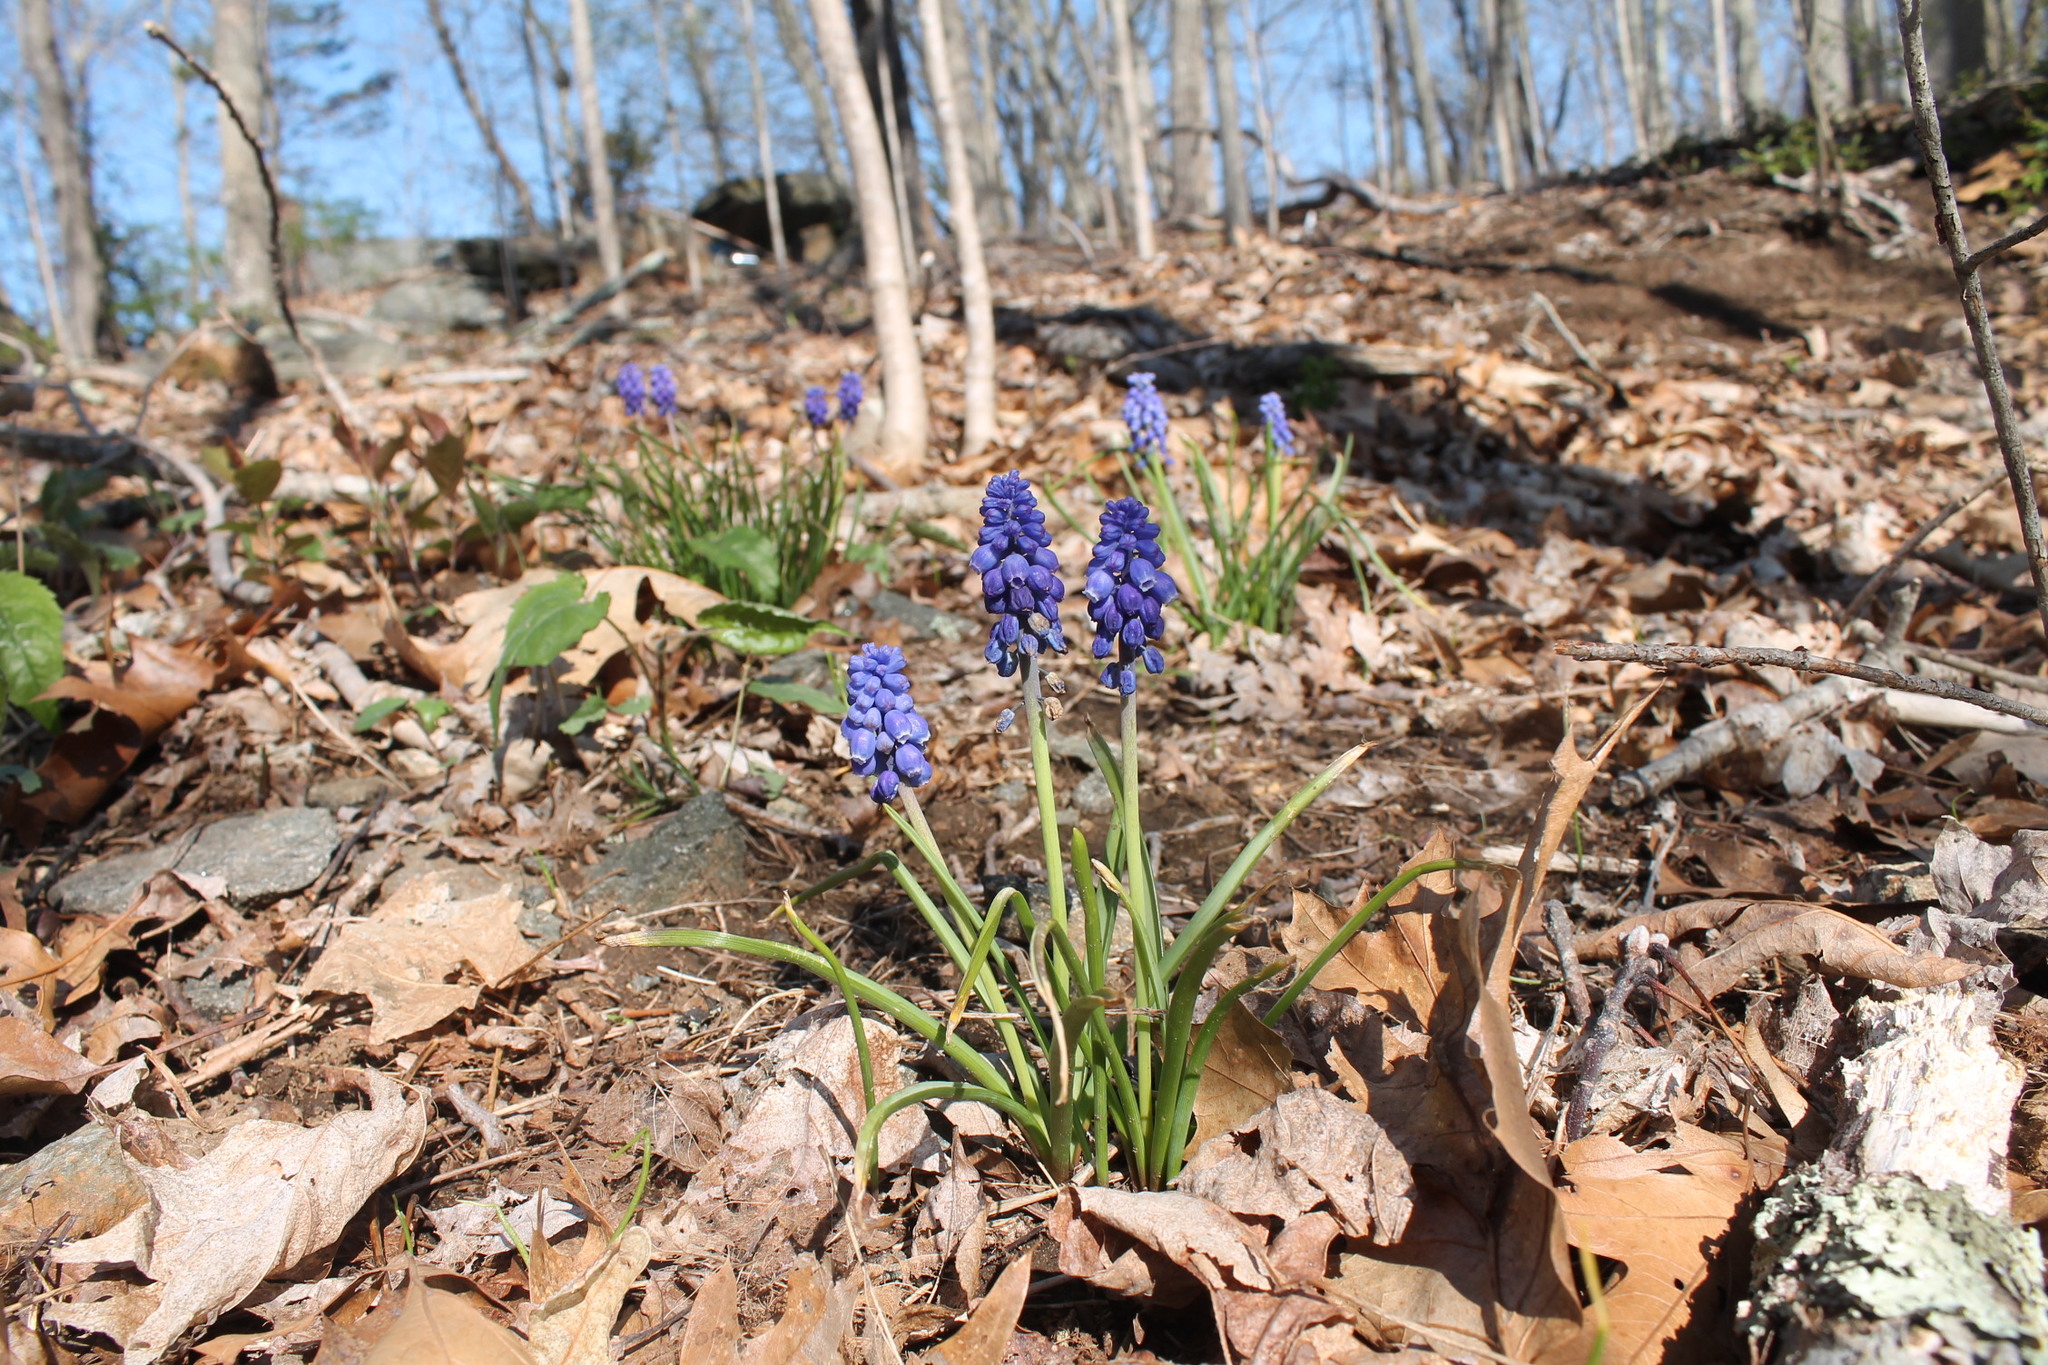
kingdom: Plantae
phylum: Tracheophyta
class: Liliopsida
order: Asparagales
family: Asparagaceae
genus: Muscari
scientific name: Muscari botryoides
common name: Compact grape-hyacinth
